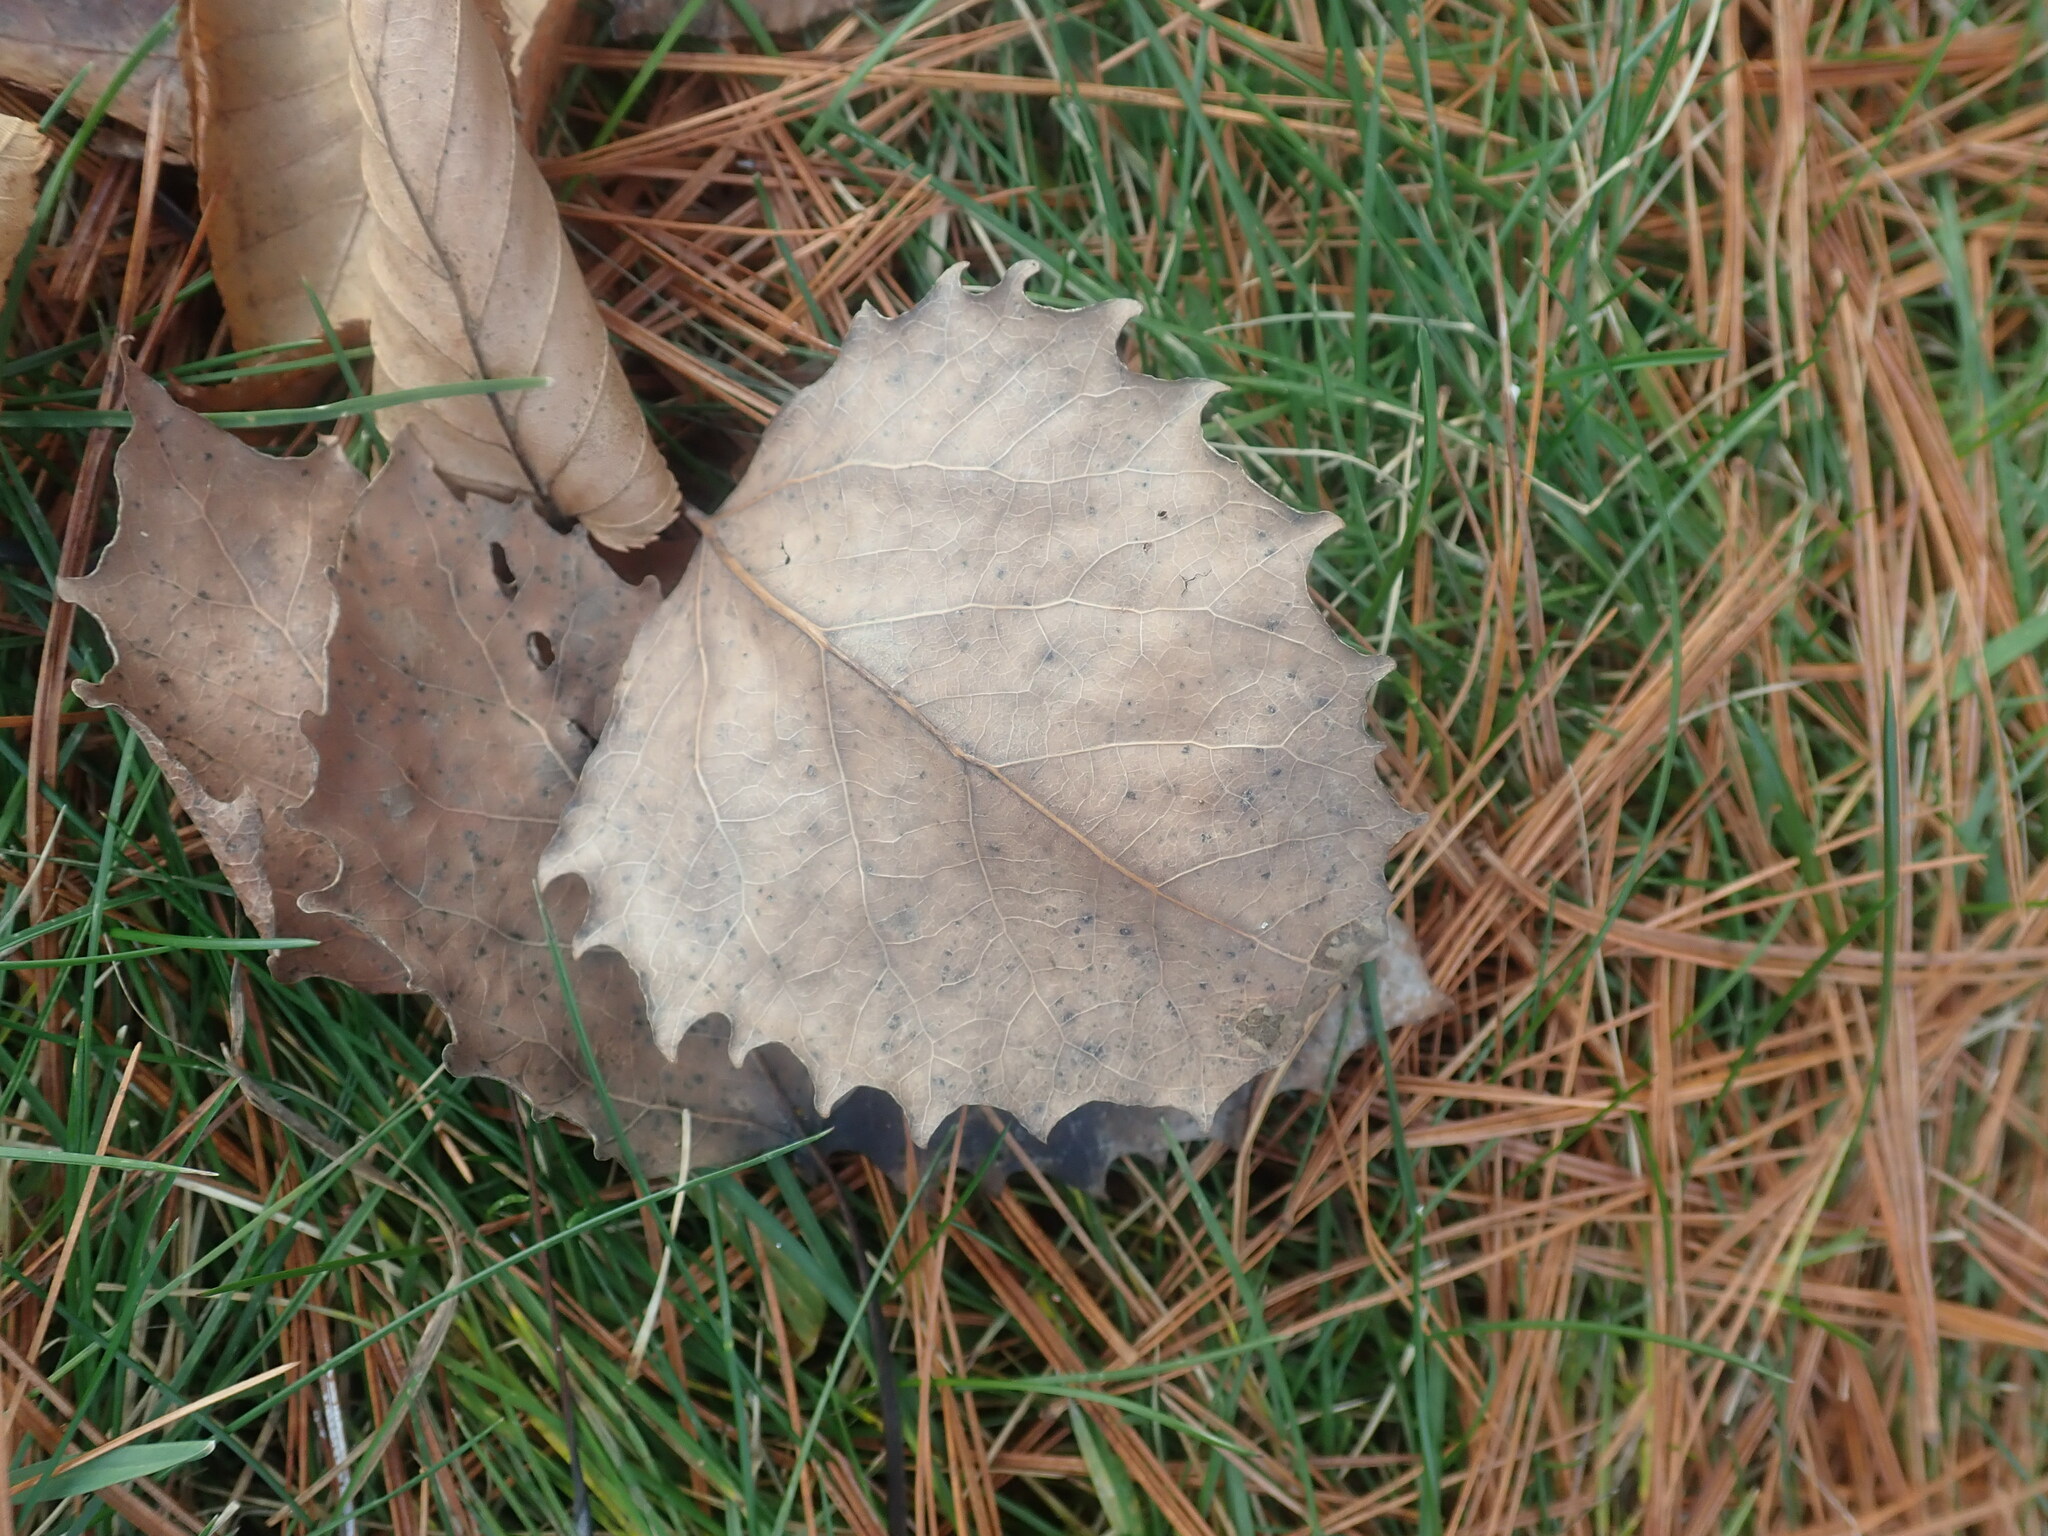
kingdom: Plantae
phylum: Tracheophyta
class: Magnoliopsida
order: Malpighiales
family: Salicaceae
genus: Populus
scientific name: Populus grandidentata
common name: Bigtooth aspen
